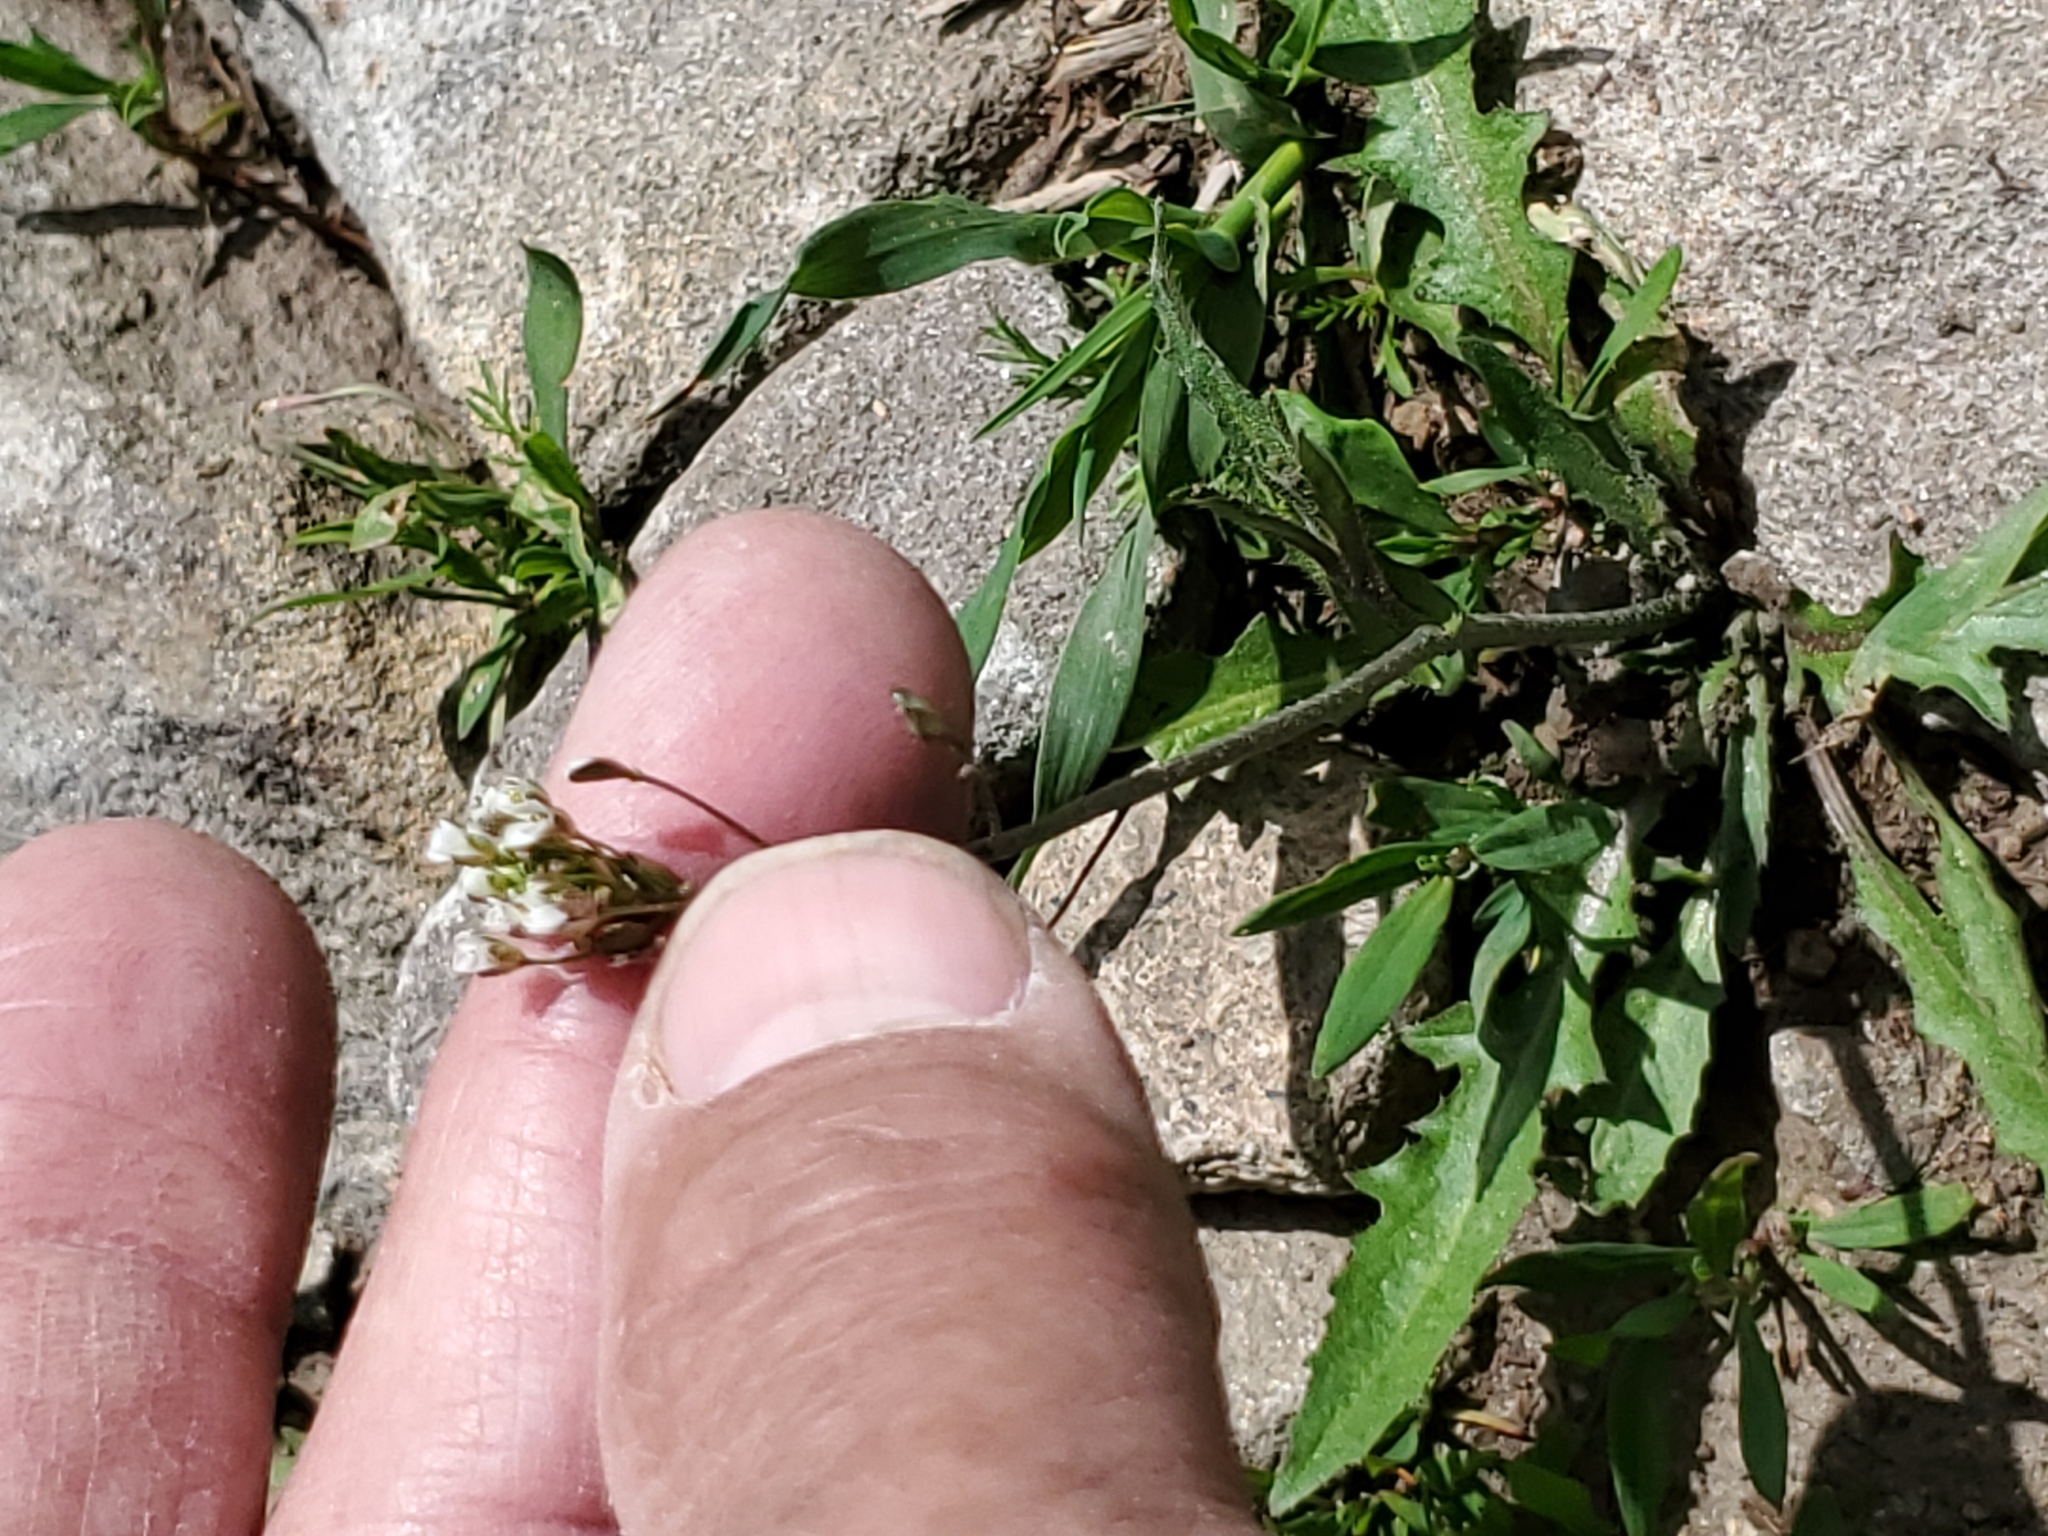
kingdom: Plantae
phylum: Tracheophyta
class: Magnoliopsida
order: Brassicales
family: Brassicaceae
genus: Capsella
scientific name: Capsella bursa-pastoris
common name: Shepherd's purse
